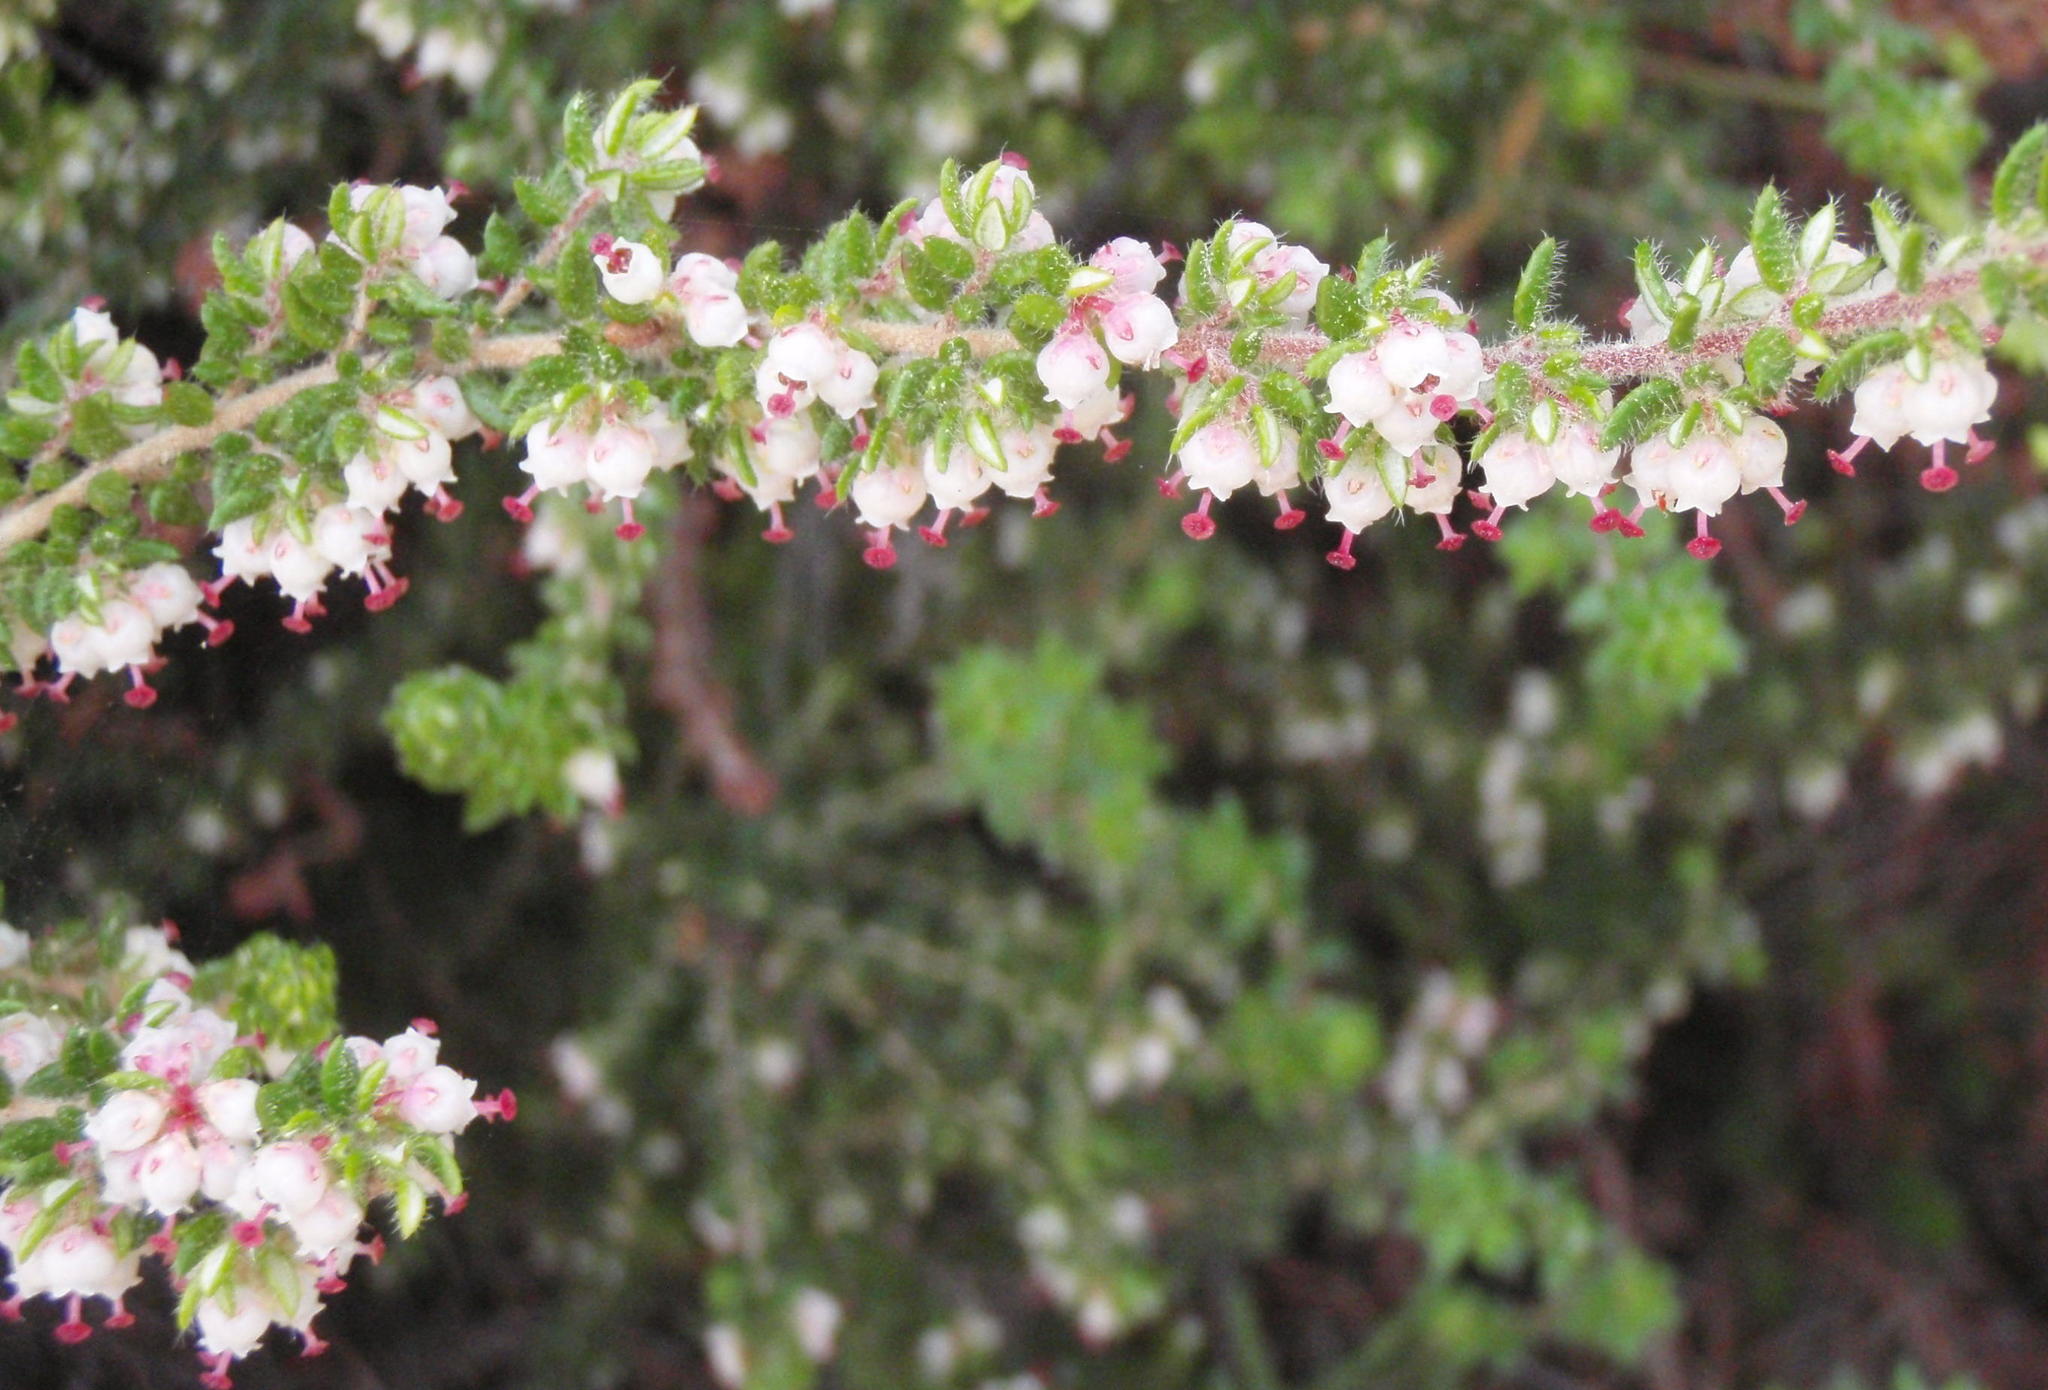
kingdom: Plantae
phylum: Tracheophyta
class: Magnoliopsida
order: Ericales
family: Ericaceae
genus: Erica
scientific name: Erica cordata
